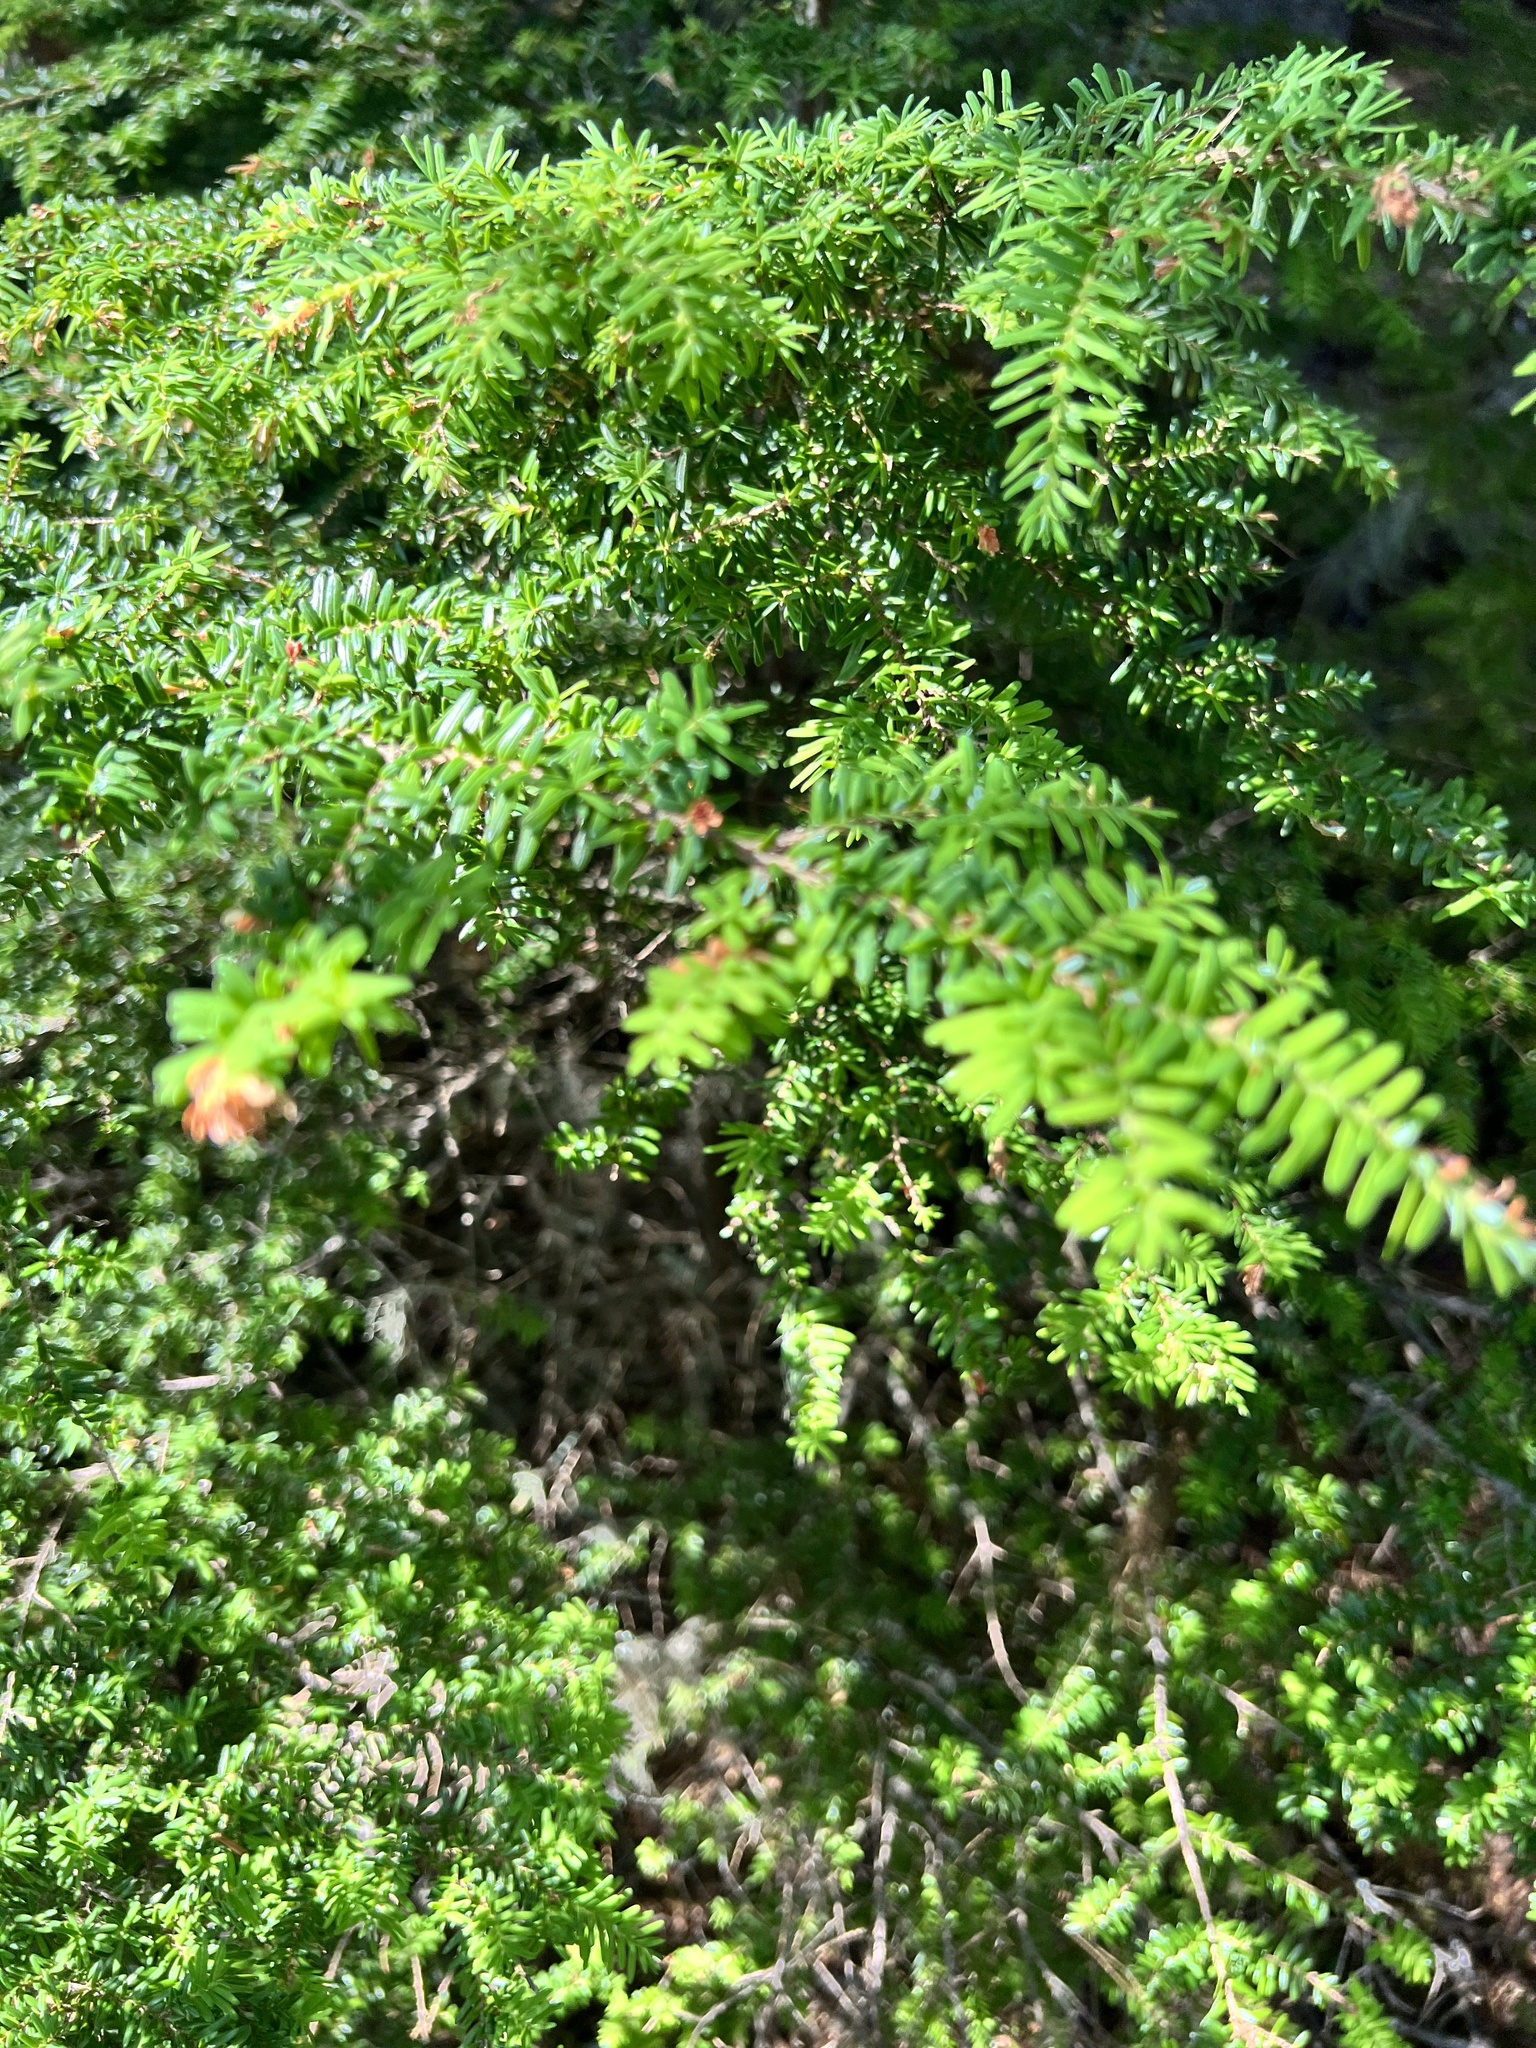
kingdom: Plantae
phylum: Tracheophyta
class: Pinopsida
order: Pinales
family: Pinaceae
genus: Tsuga
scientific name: Tsuga heterophylla
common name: Western hemlock
